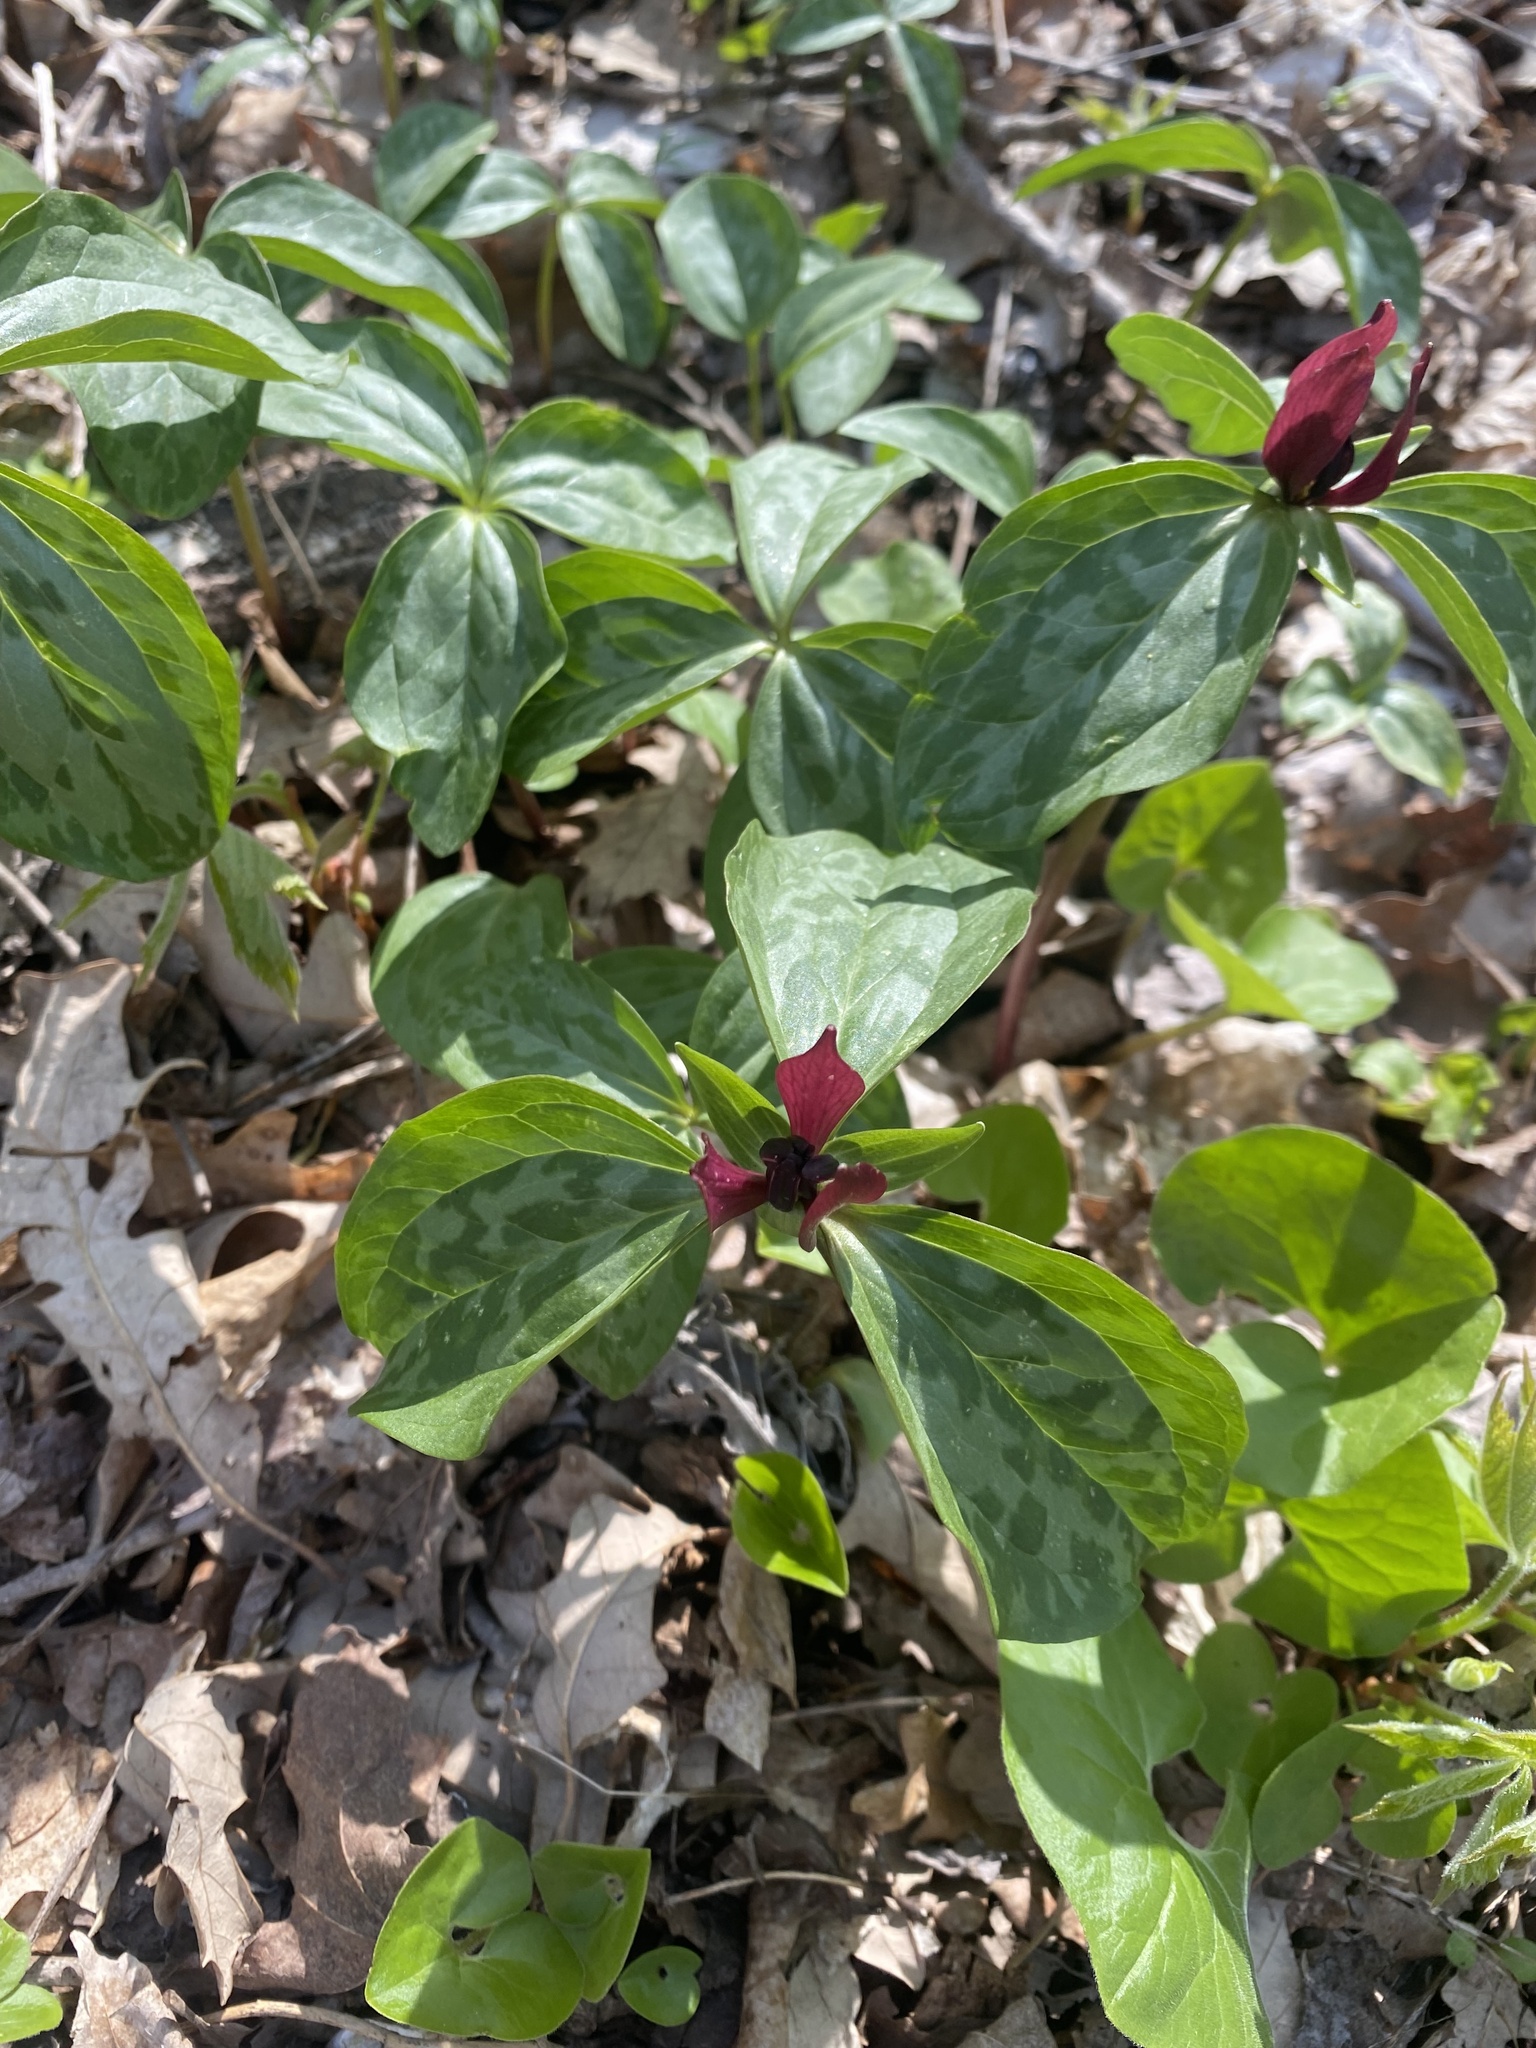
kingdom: Plantae
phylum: Tracheophyta
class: Liliopsida
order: Liliales
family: Melanthiaceae
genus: Trillium
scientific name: Trillium recurvatum
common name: Bloody butcher
